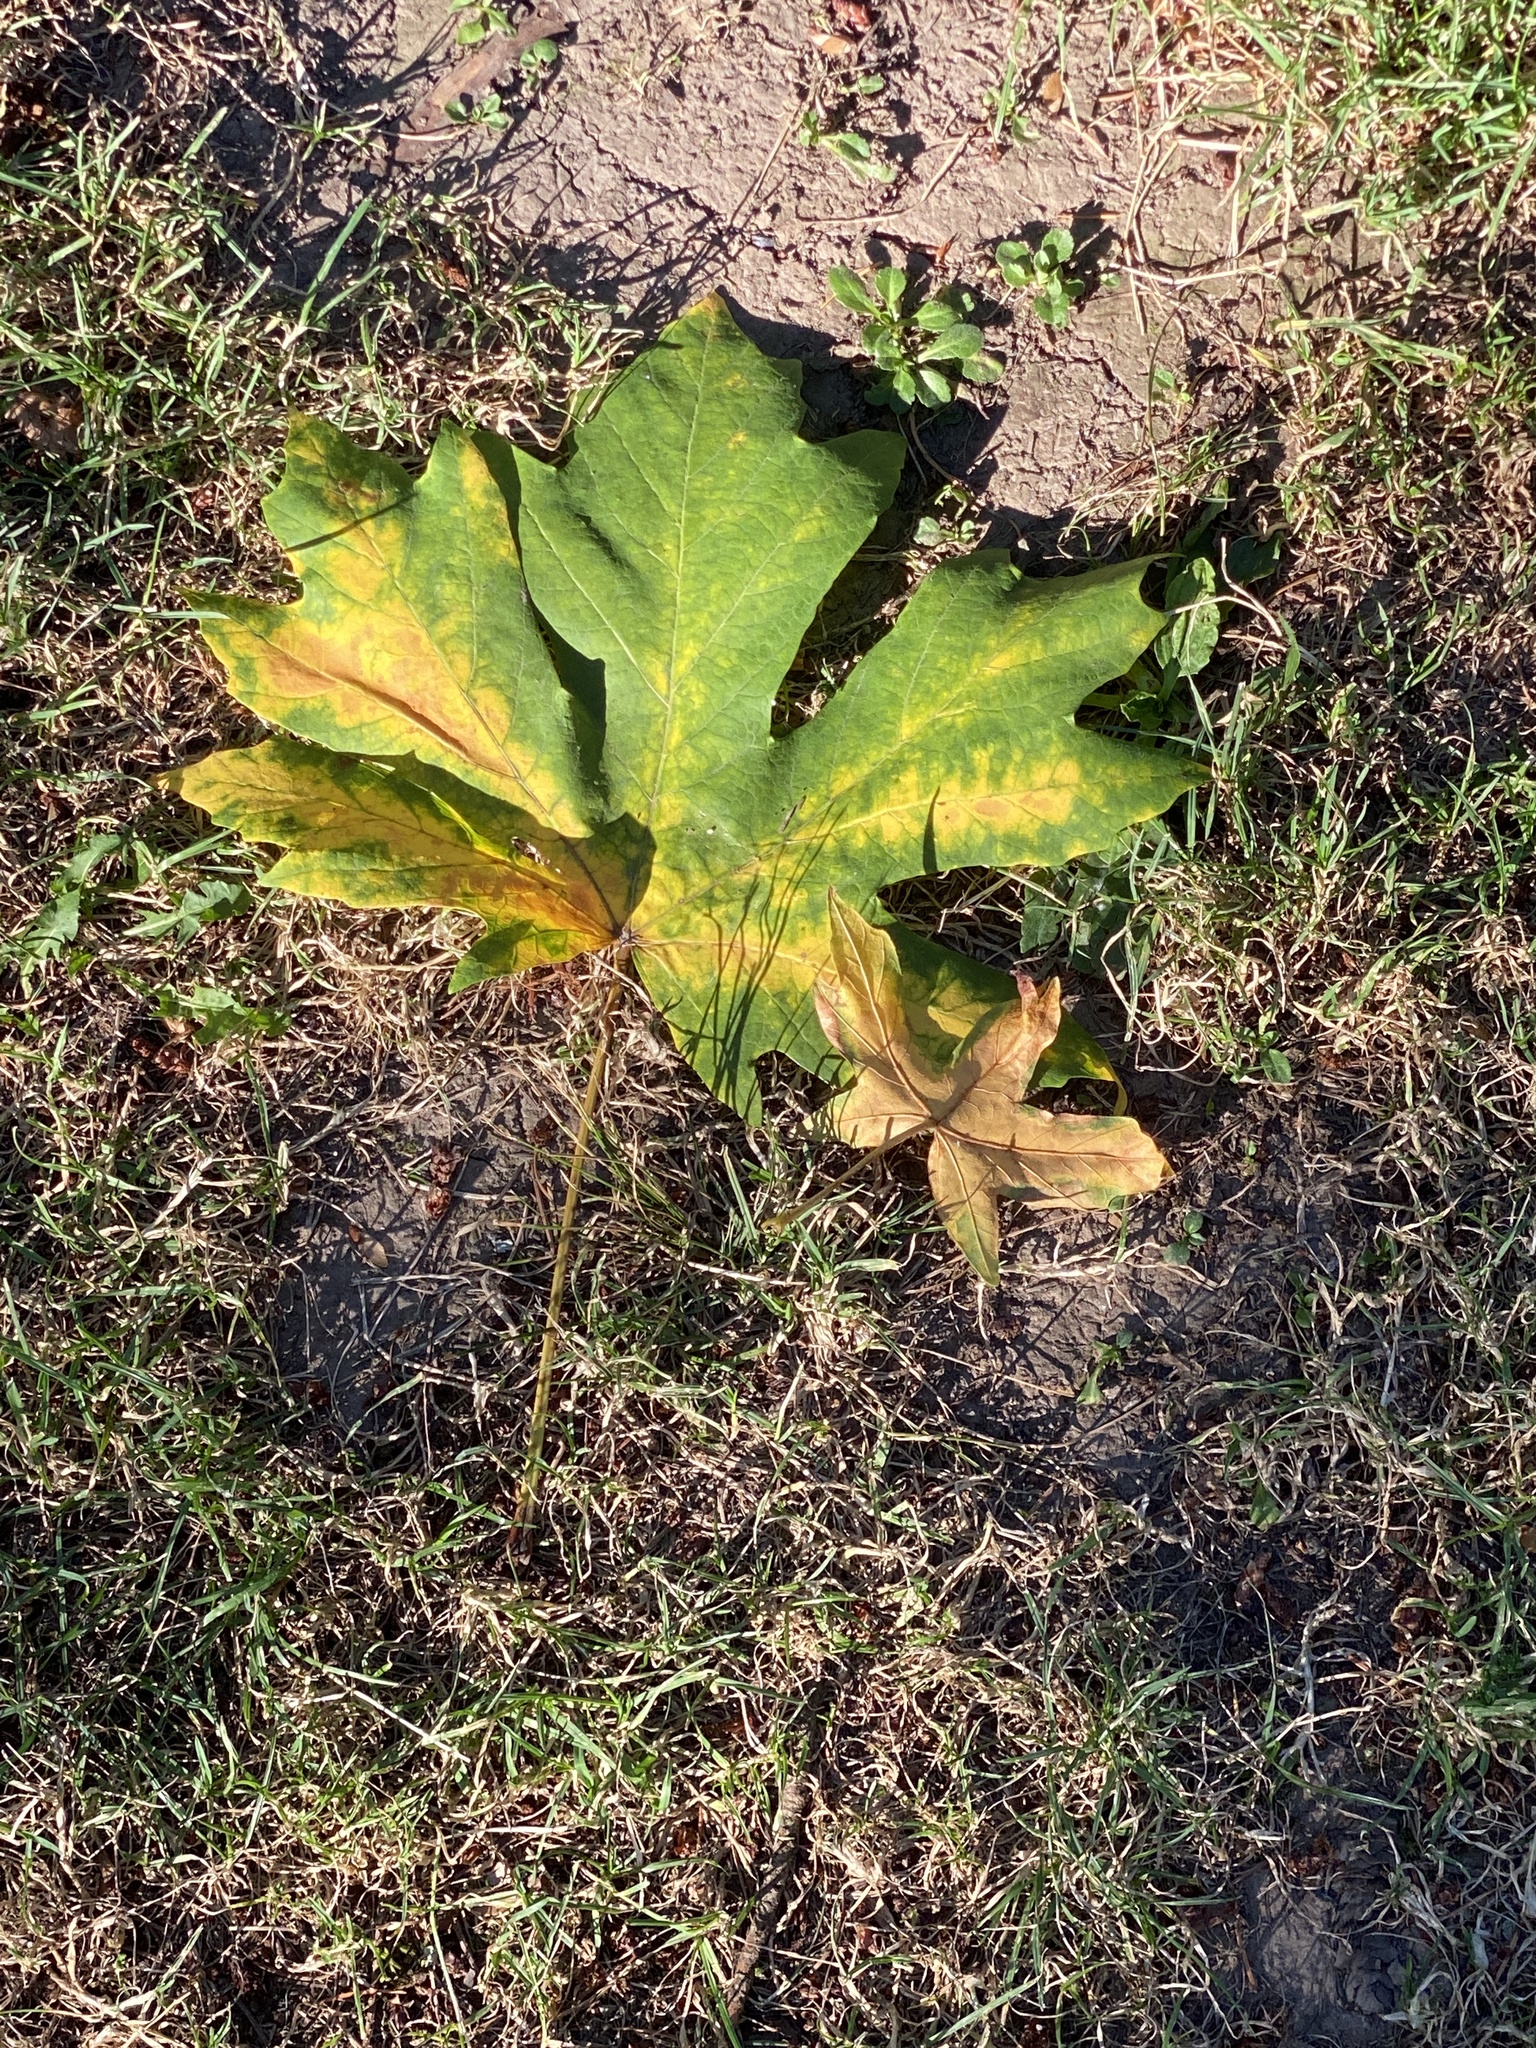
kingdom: Plantae
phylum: Tracheophyta
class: Magnoliopsida
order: Sapindales
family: Sapindaceae
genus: Acer
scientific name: Acer macrophyllum
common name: Oregon maple
